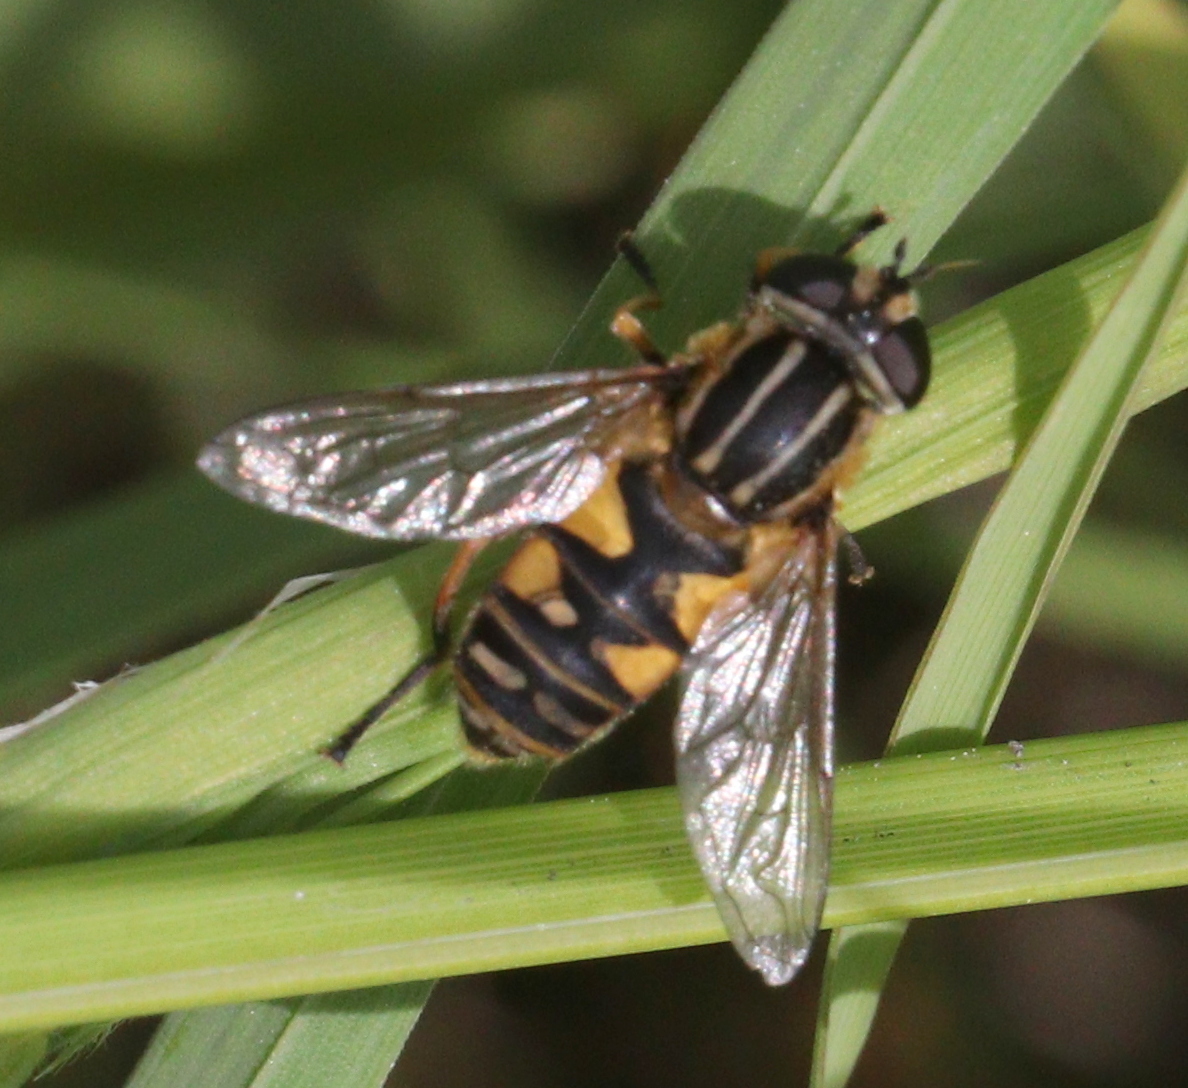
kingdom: Animalia
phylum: Arthropoda
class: Insecta
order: Diptera
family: Syrphidae
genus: Helophilus
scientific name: Helophilus pendulus
